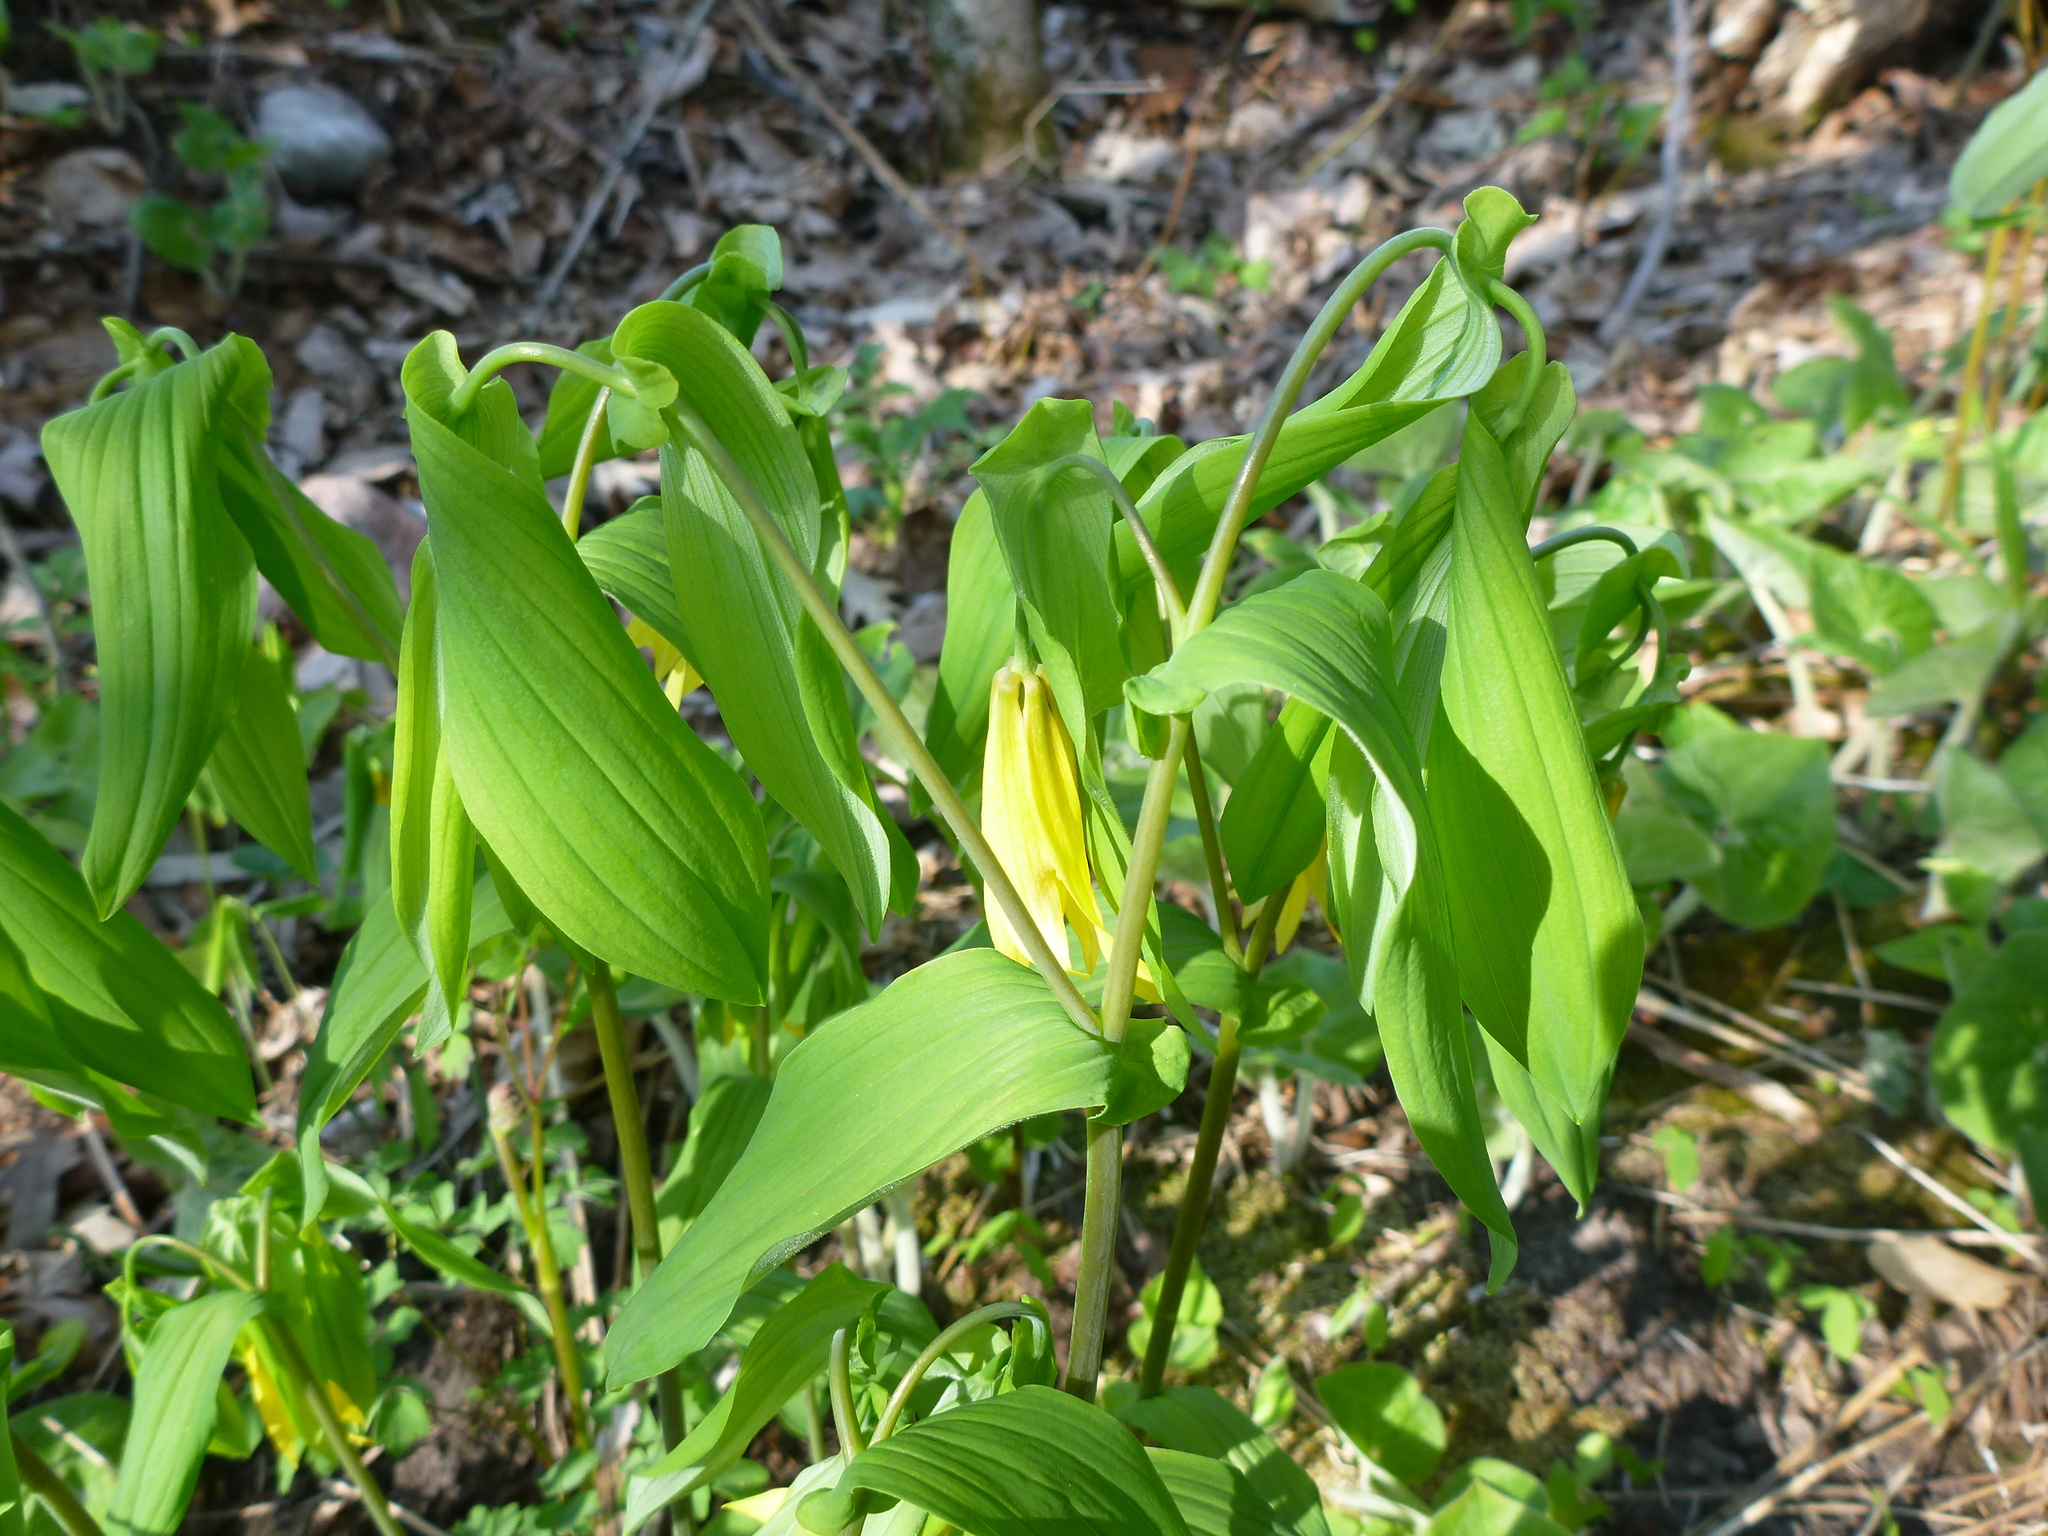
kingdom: Plantae
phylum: Tracheophyta
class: Liliopsida
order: Liliales
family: Colchicaceae
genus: Uvularia
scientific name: Uvularia grandiflora
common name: Bellwort
